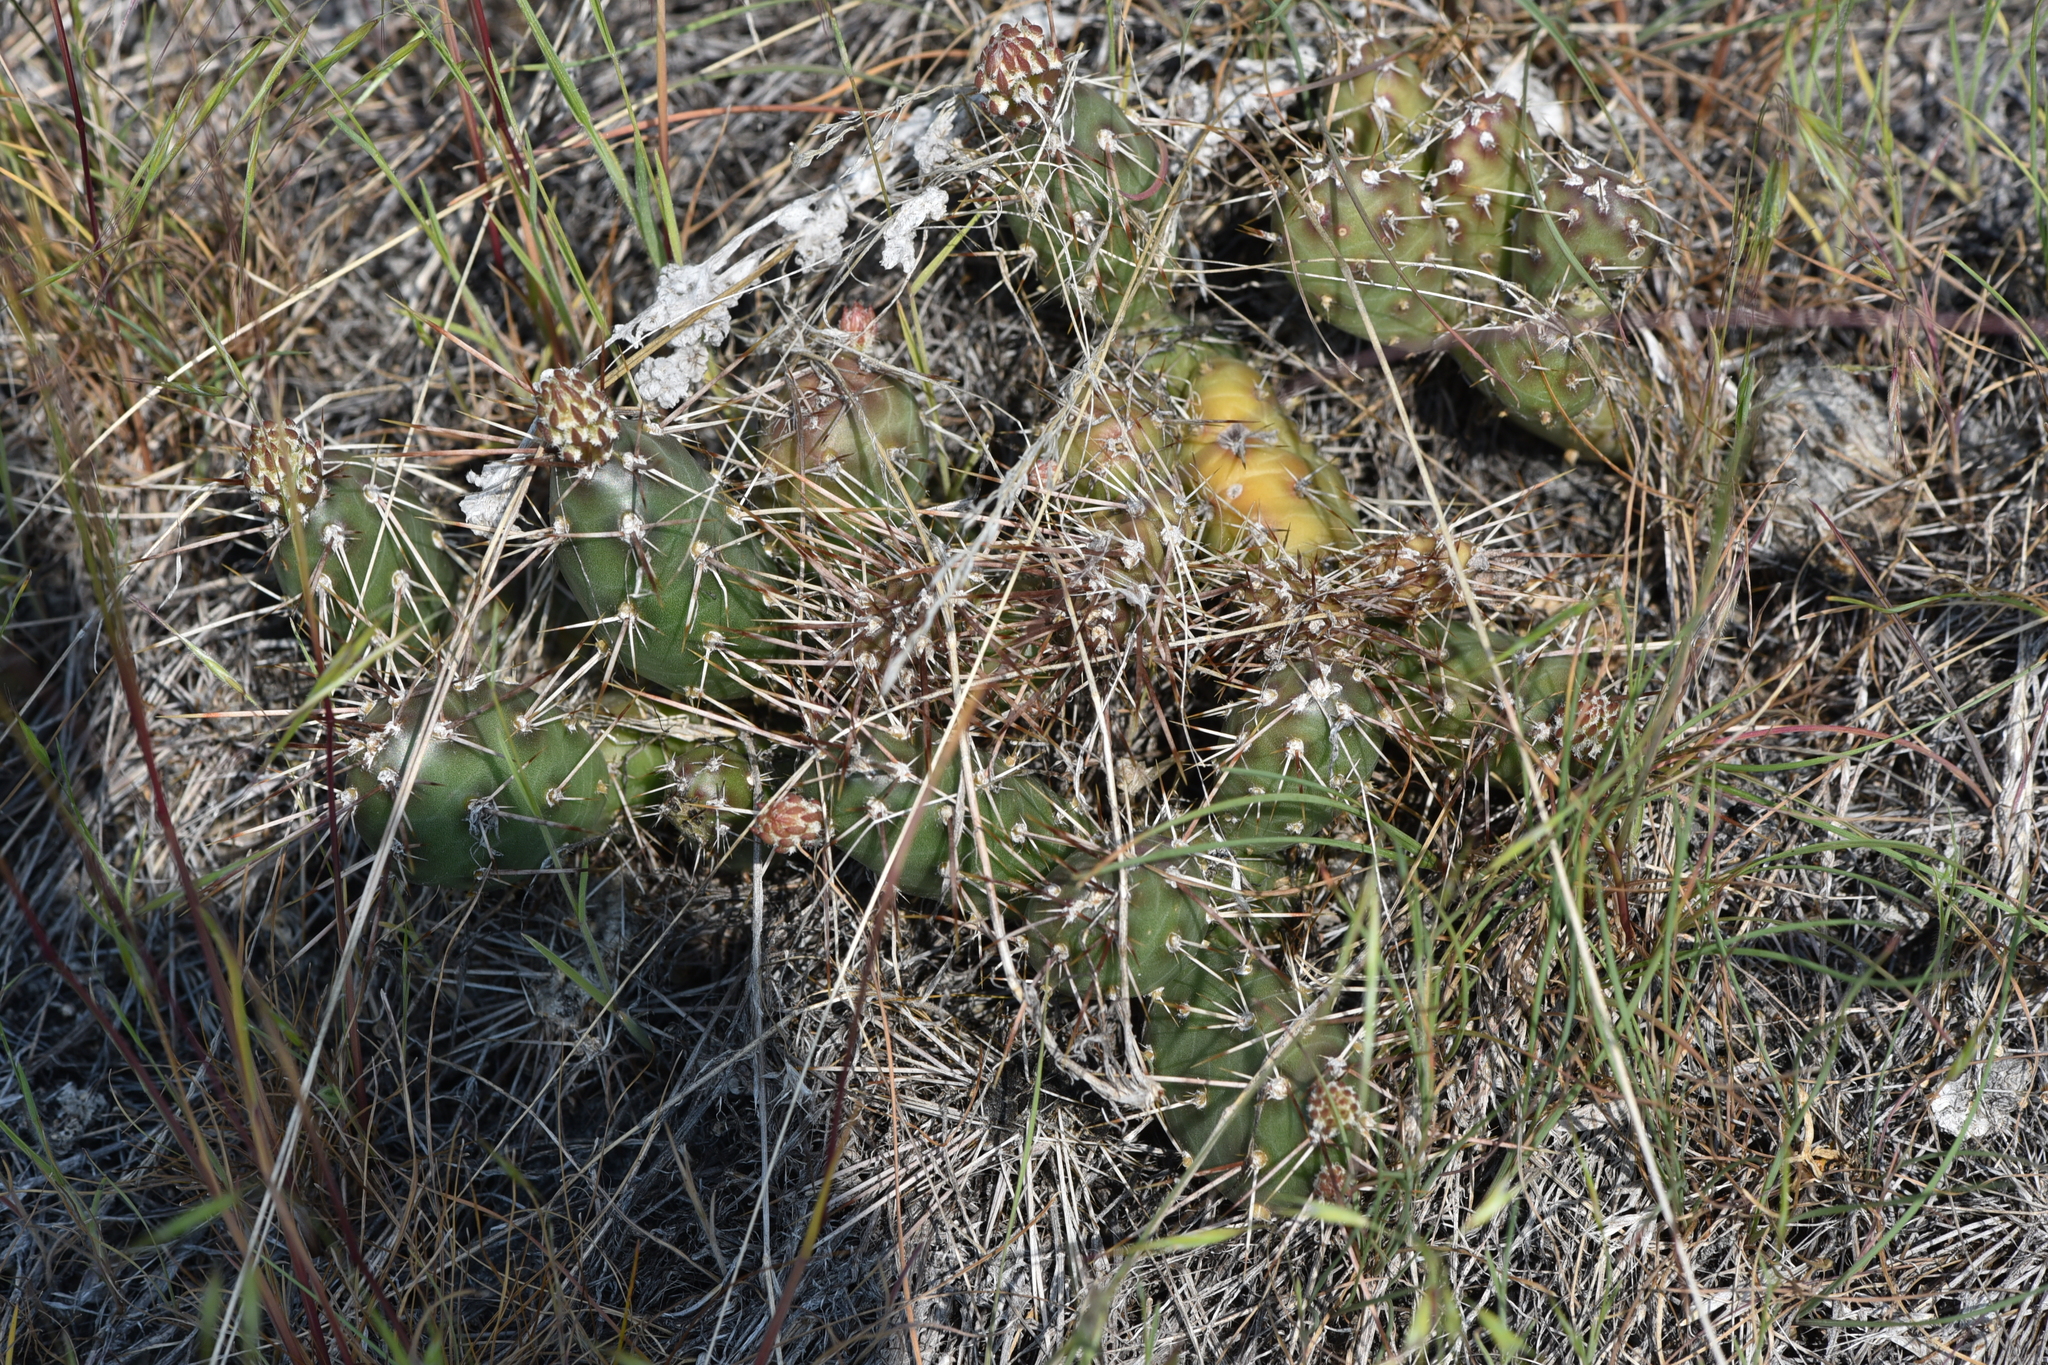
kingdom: Plantae
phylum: Tracheophyta
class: Magnoliopsida
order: Caryophyllales
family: Cactaceae
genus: Opuntia
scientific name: Opuntia fragilis
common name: Brittle cactus
